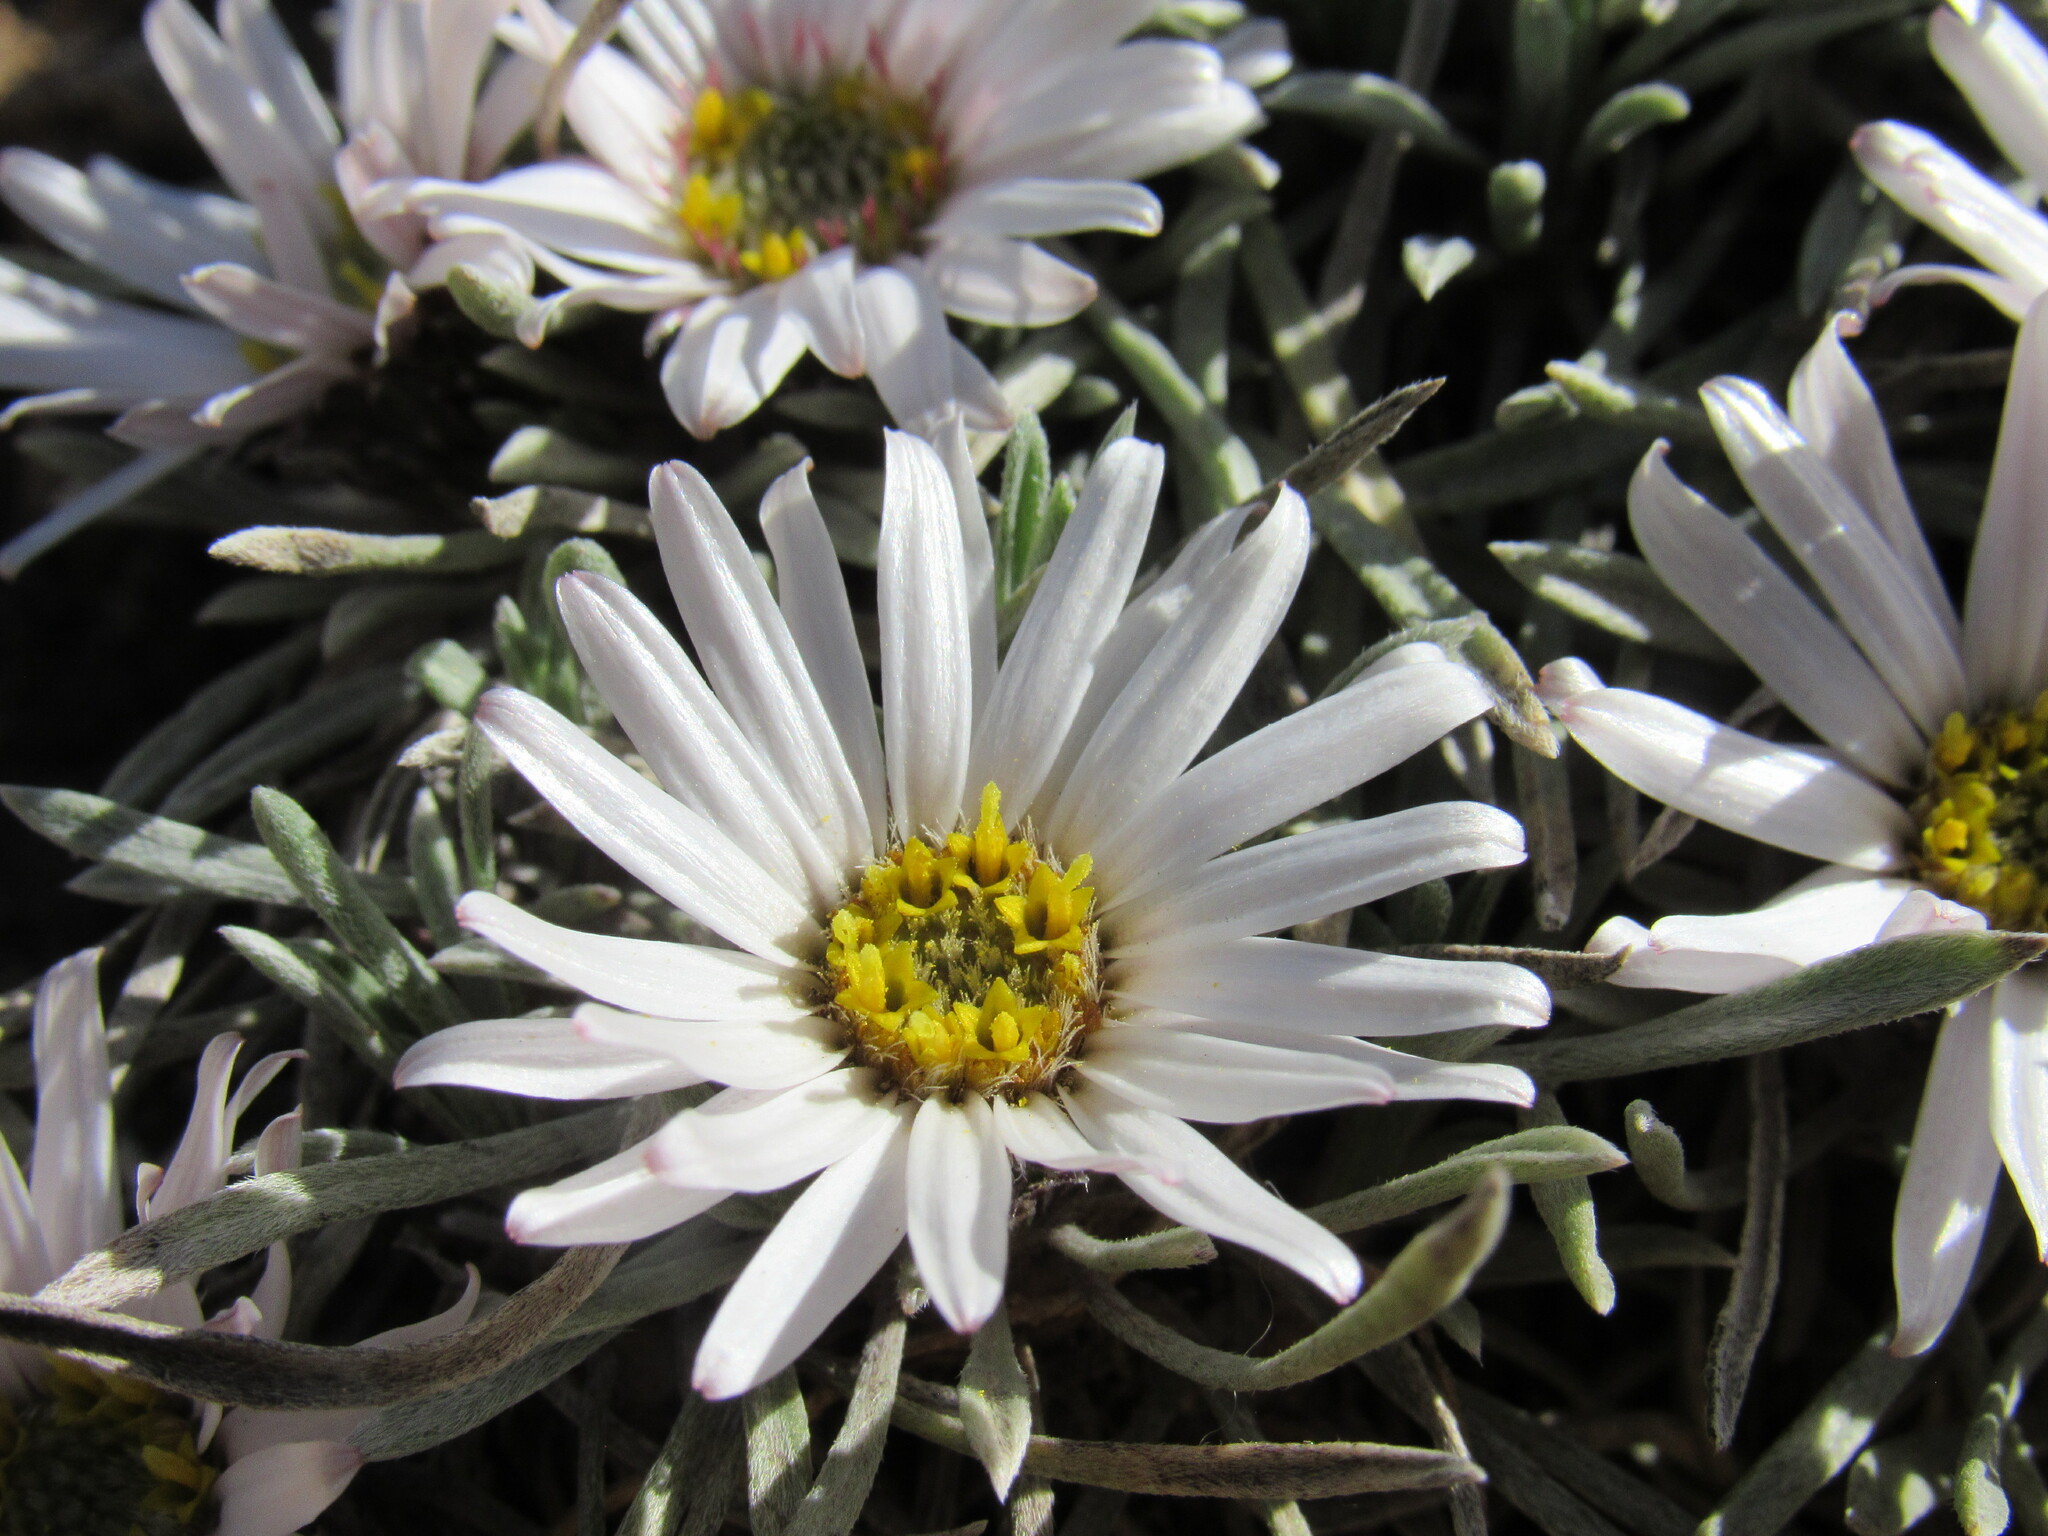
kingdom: Plantae
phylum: Tracheophyta
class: Magnoliopsida
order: Asterales
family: Asteraceae
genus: Townsendia
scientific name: Townsendia hookeri
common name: Hooker's townsend daisy
